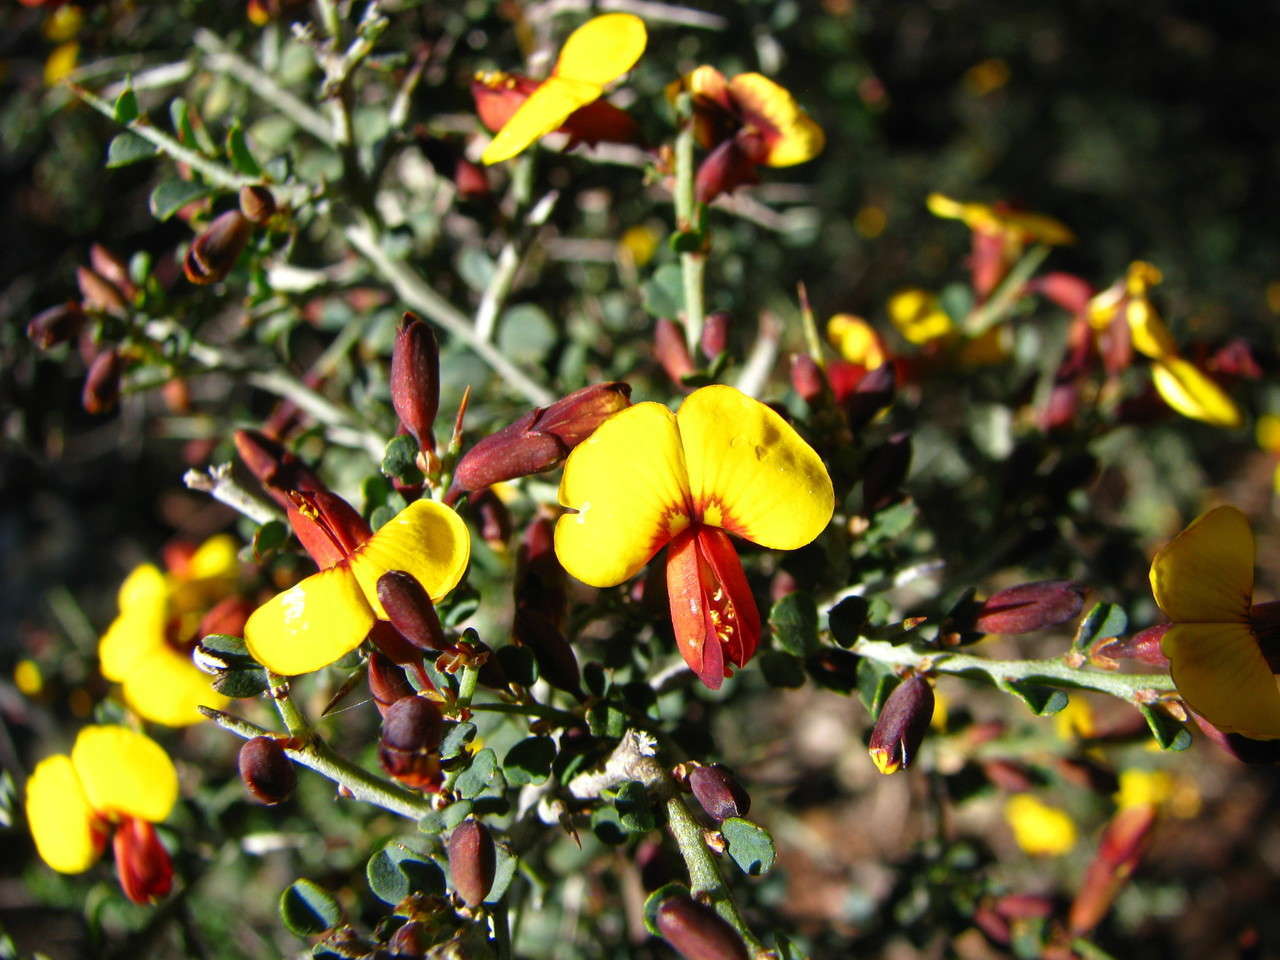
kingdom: Plantae
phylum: Tracheophyta
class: Magnoliopsida
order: Fabales
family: Fabaceae
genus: Bossiaea
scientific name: Bossiaea obcordata
